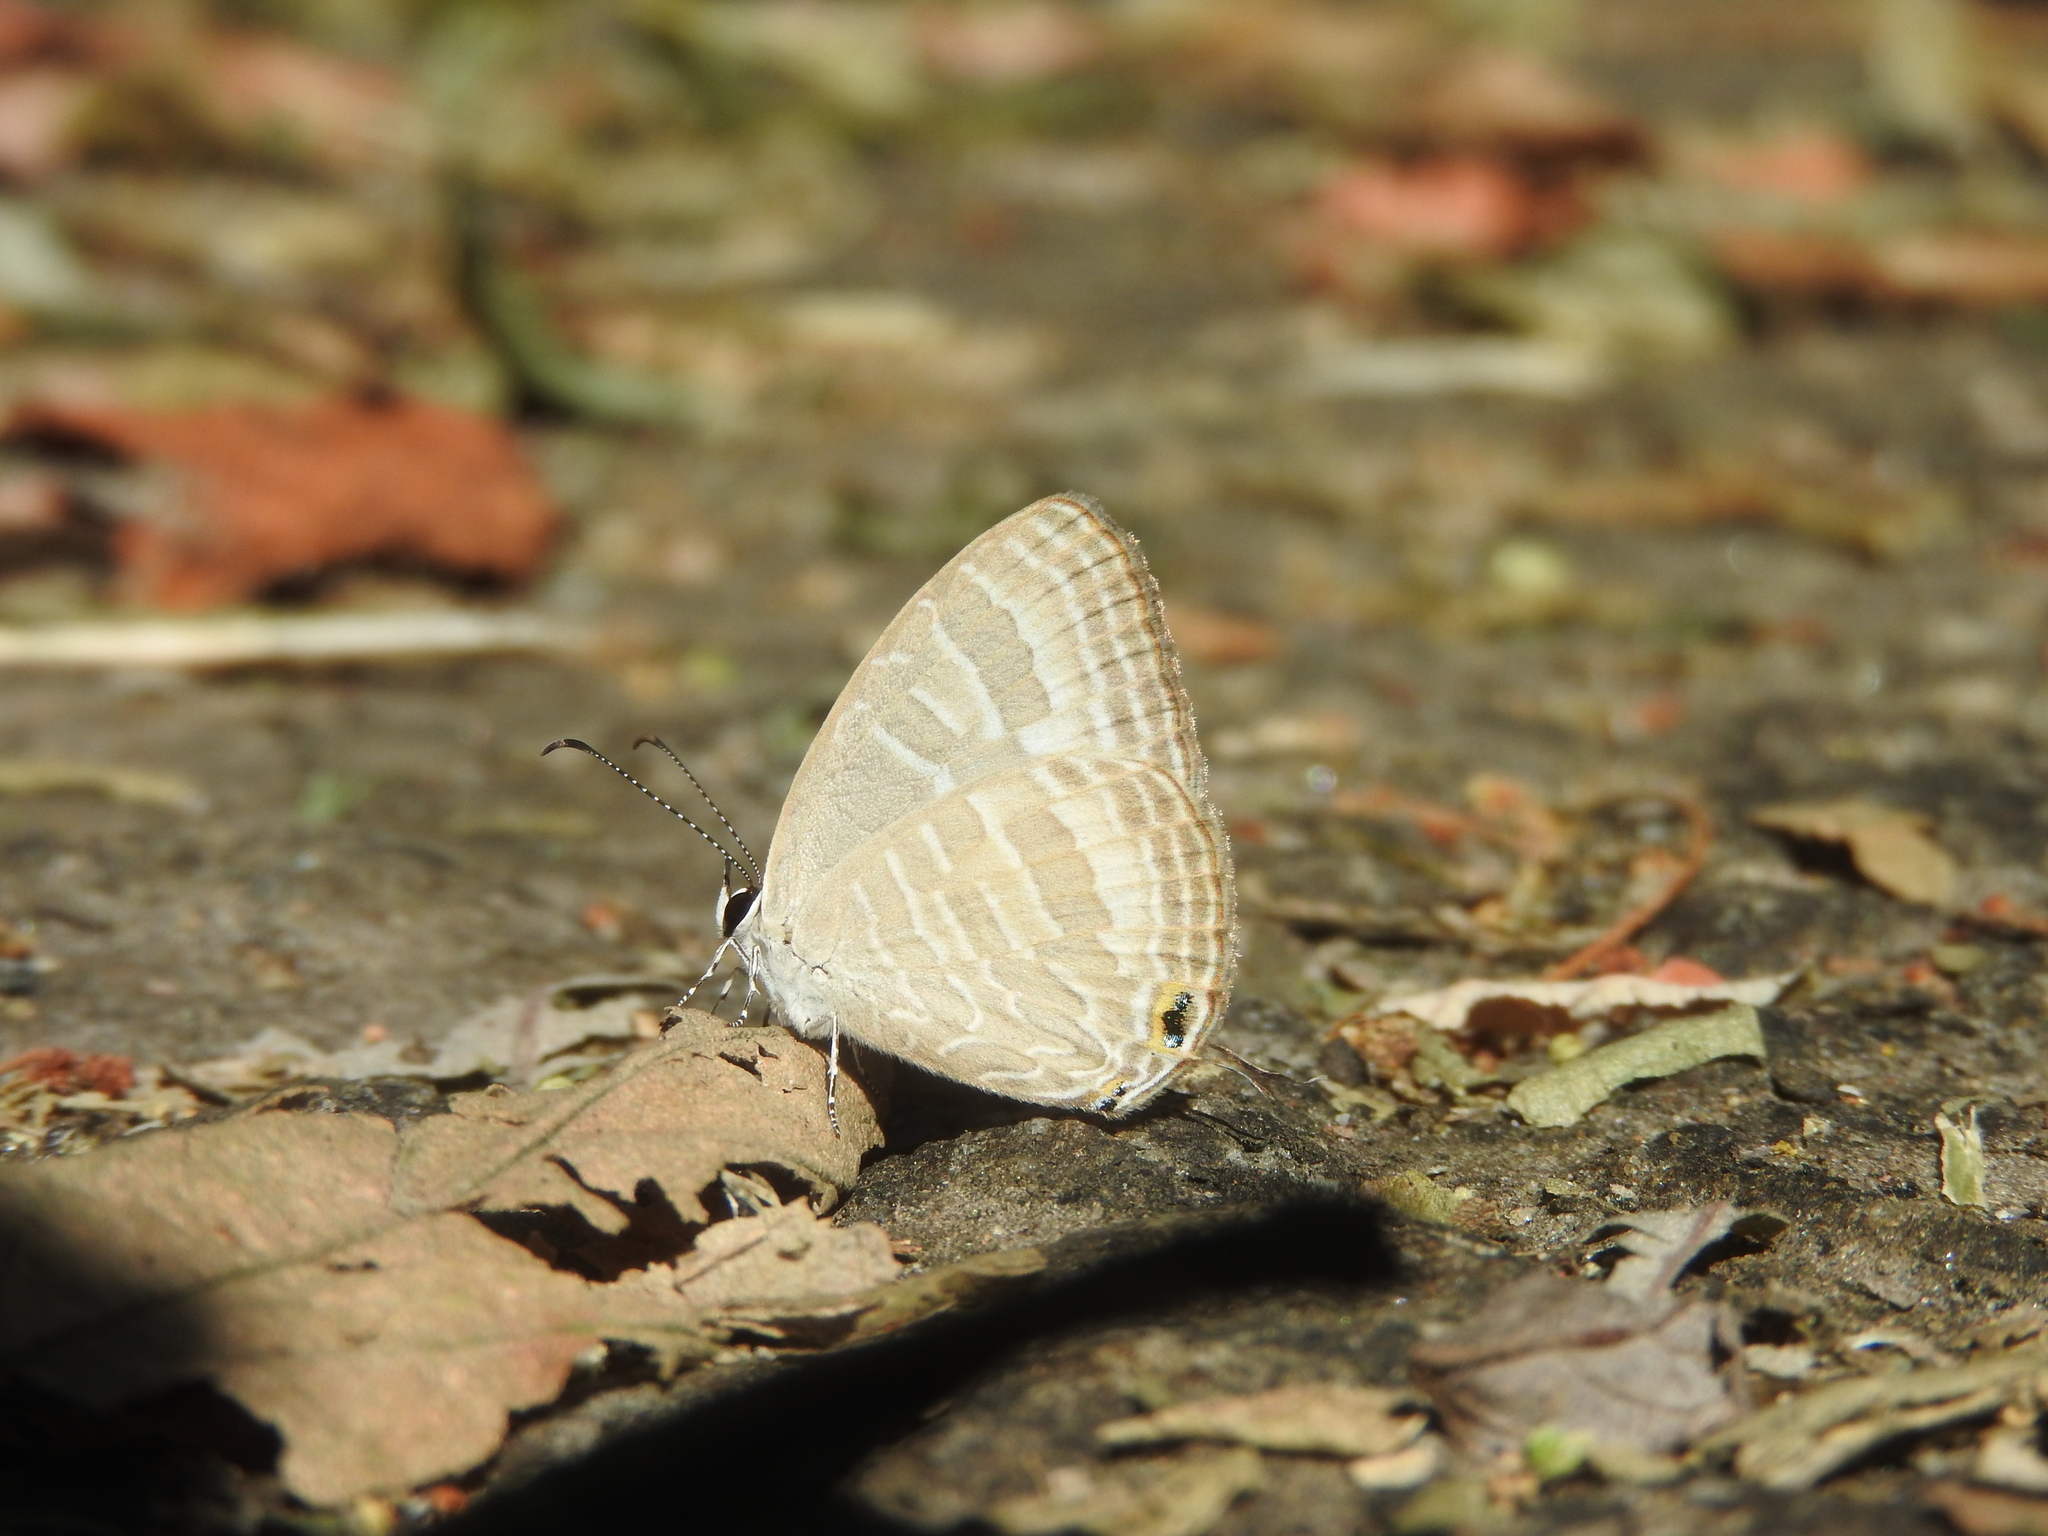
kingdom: Animalia
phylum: Arthropoda
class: Insecta
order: Lepidoptera
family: Lycaenidae
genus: Jamides
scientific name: Jamides celeno
